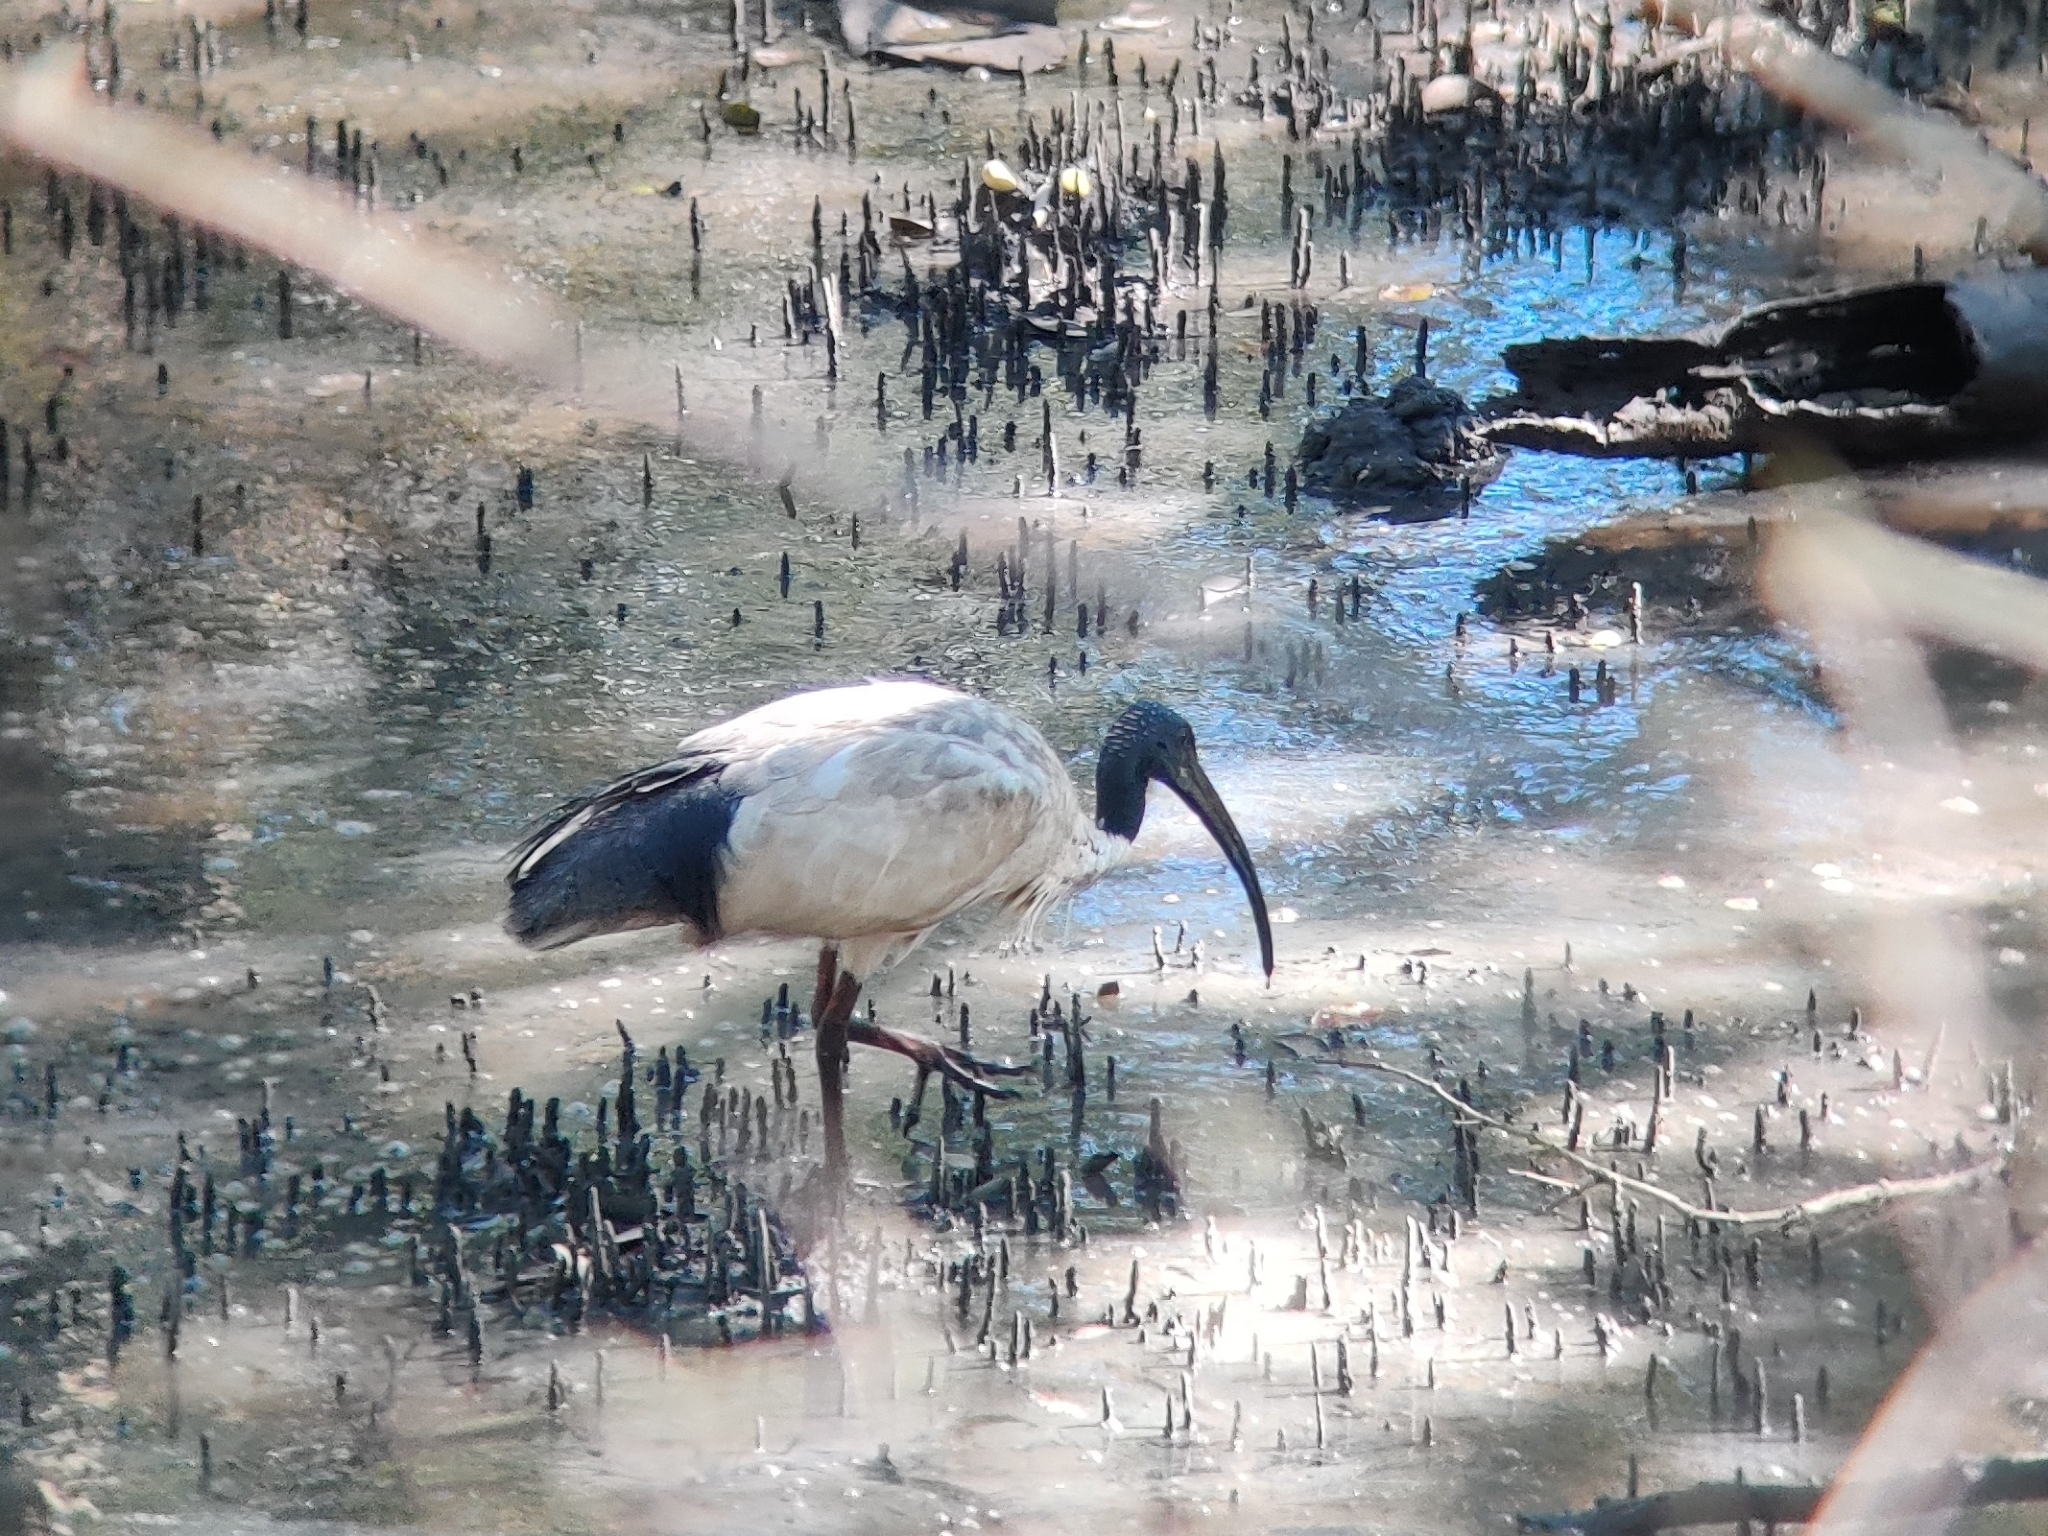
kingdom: Animalia
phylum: Chordata
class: Aves
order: Pelecaniformes
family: Threskiornithidae
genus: Threskiornis
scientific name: Threskiornis molucca
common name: Australian white ibis
